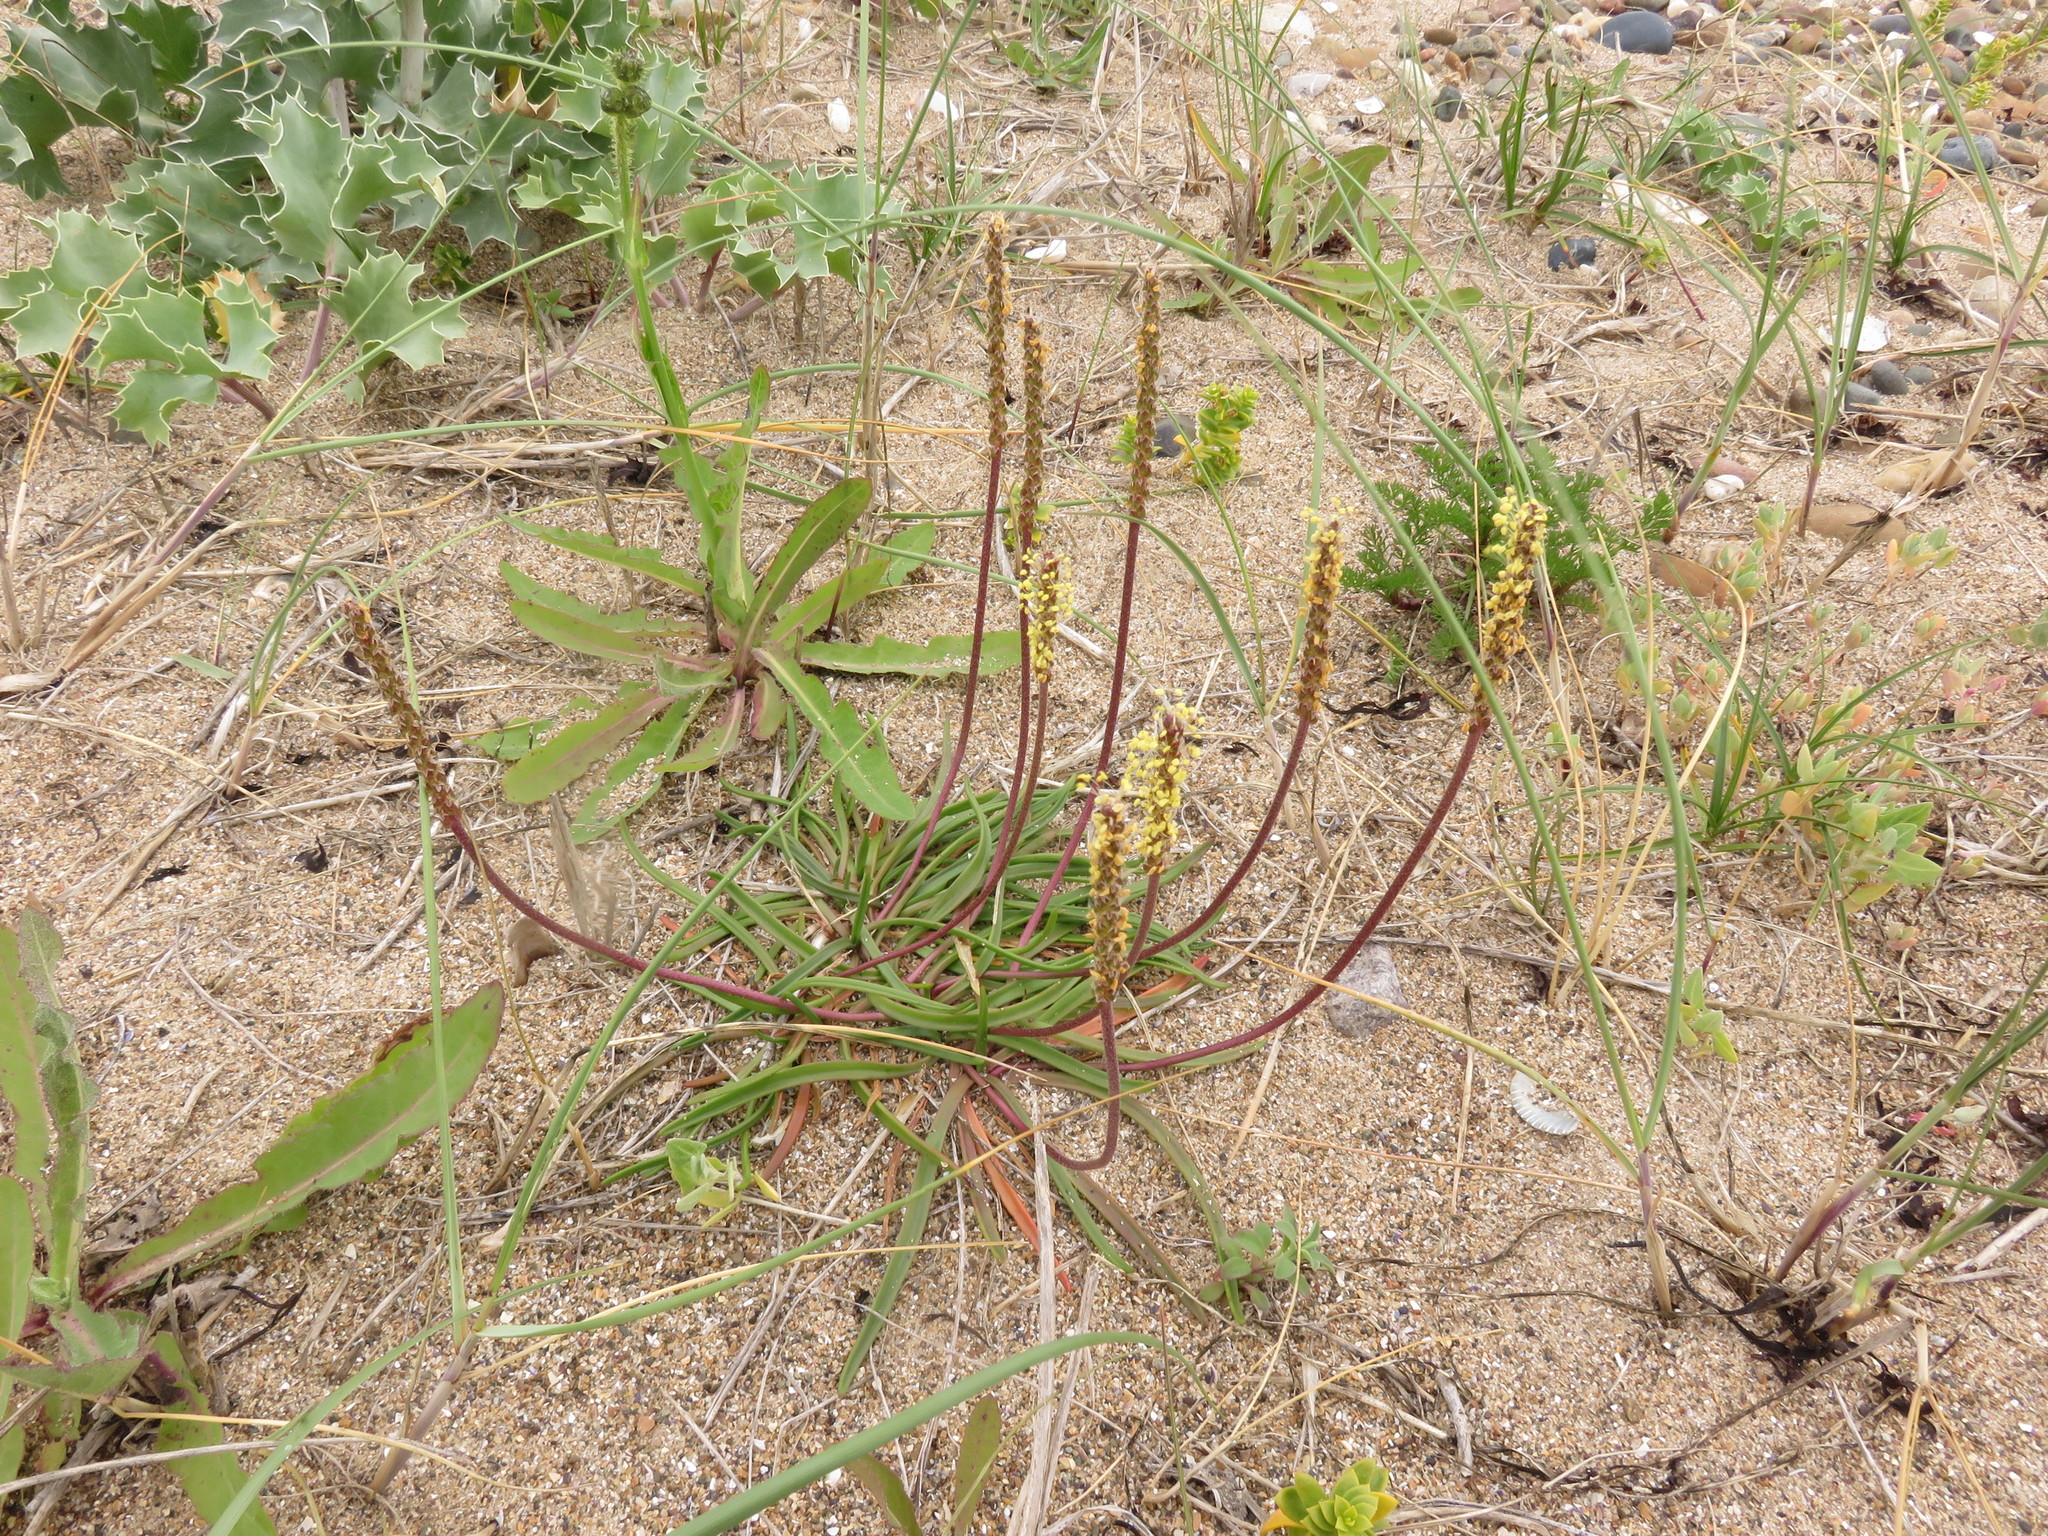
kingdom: Plantae
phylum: Tracheophyta
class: Magnoliopsida
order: Lamiales
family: Plantaginaceae
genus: Plantago
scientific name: Plantago maritima
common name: Sea plantain
